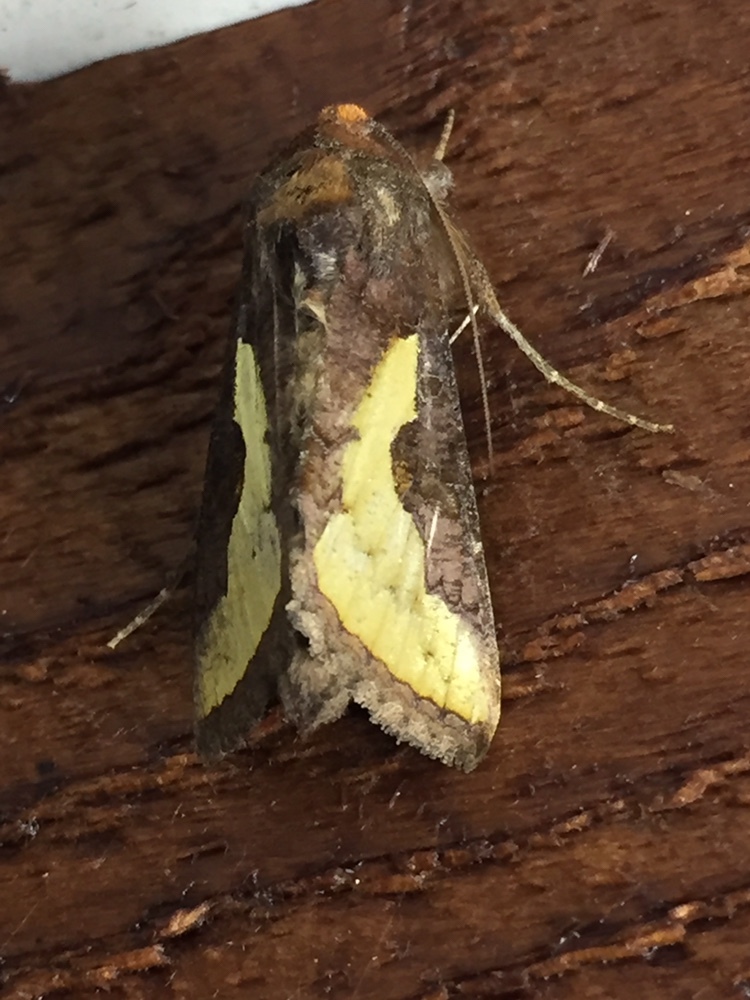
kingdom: Animalia
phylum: Arthropoda
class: Insecta
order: Lepidoptera
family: Noctuidae
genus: Thysanoplusia
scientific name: Thysanoplusia orichalcea
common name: Slender burnished brass, golden plusia
